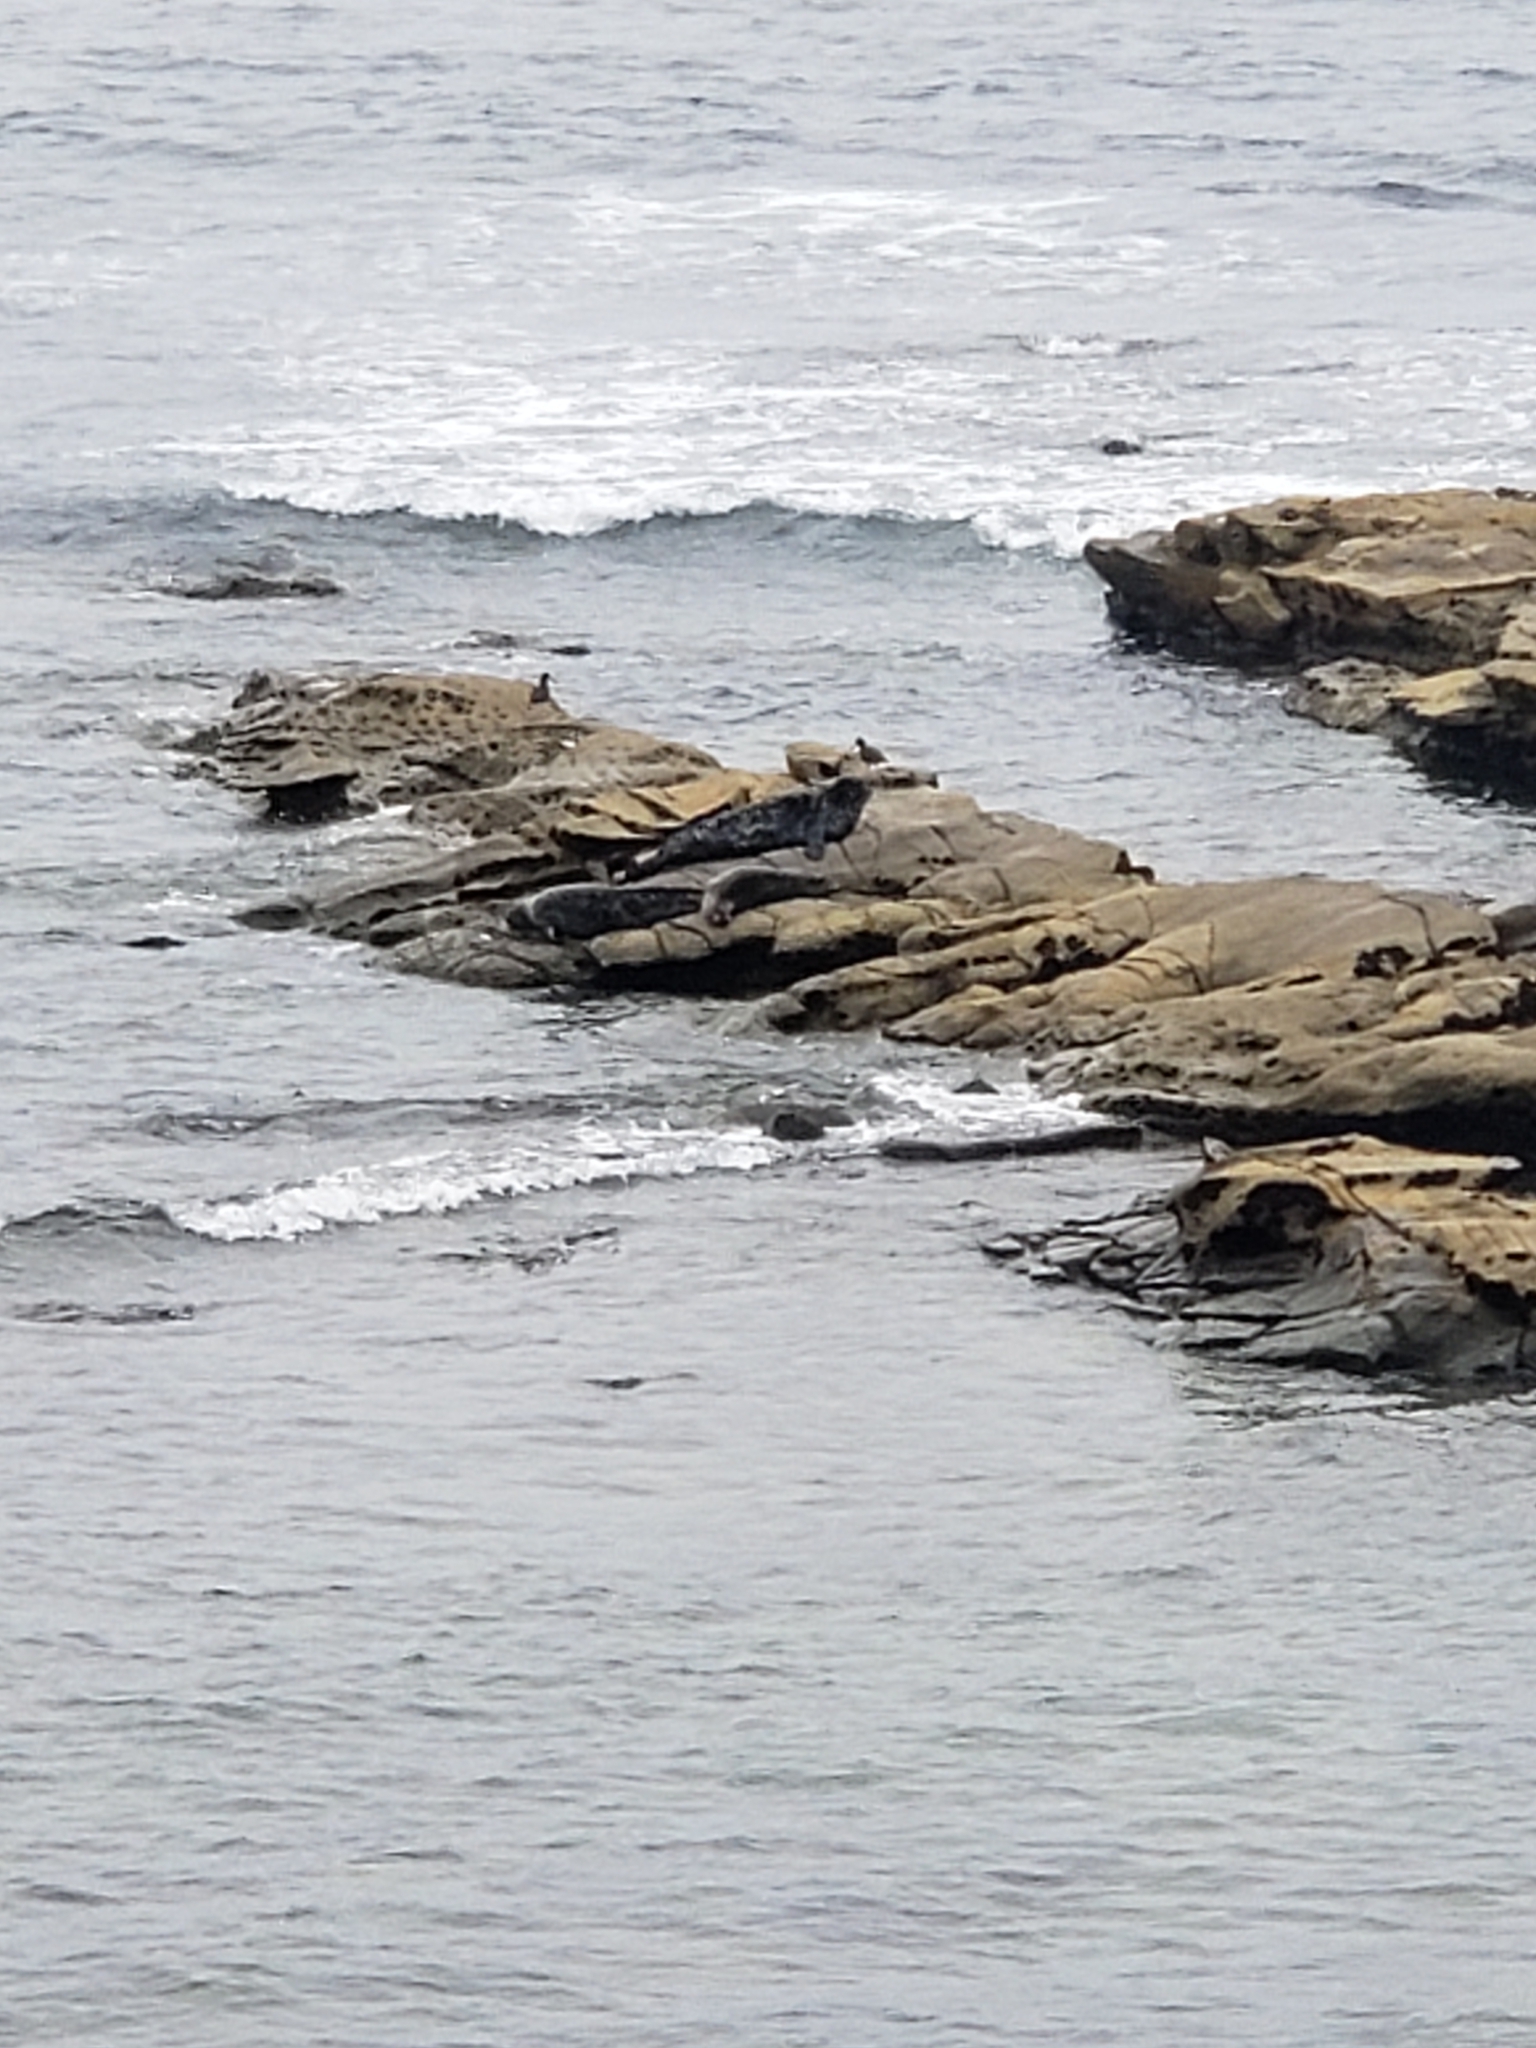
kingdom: Animalia
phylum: Chordata
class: Mammalia
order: Carnivora
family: Phocidae
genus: Phoca
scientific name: Phoca vitulina
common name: Harbor seal
